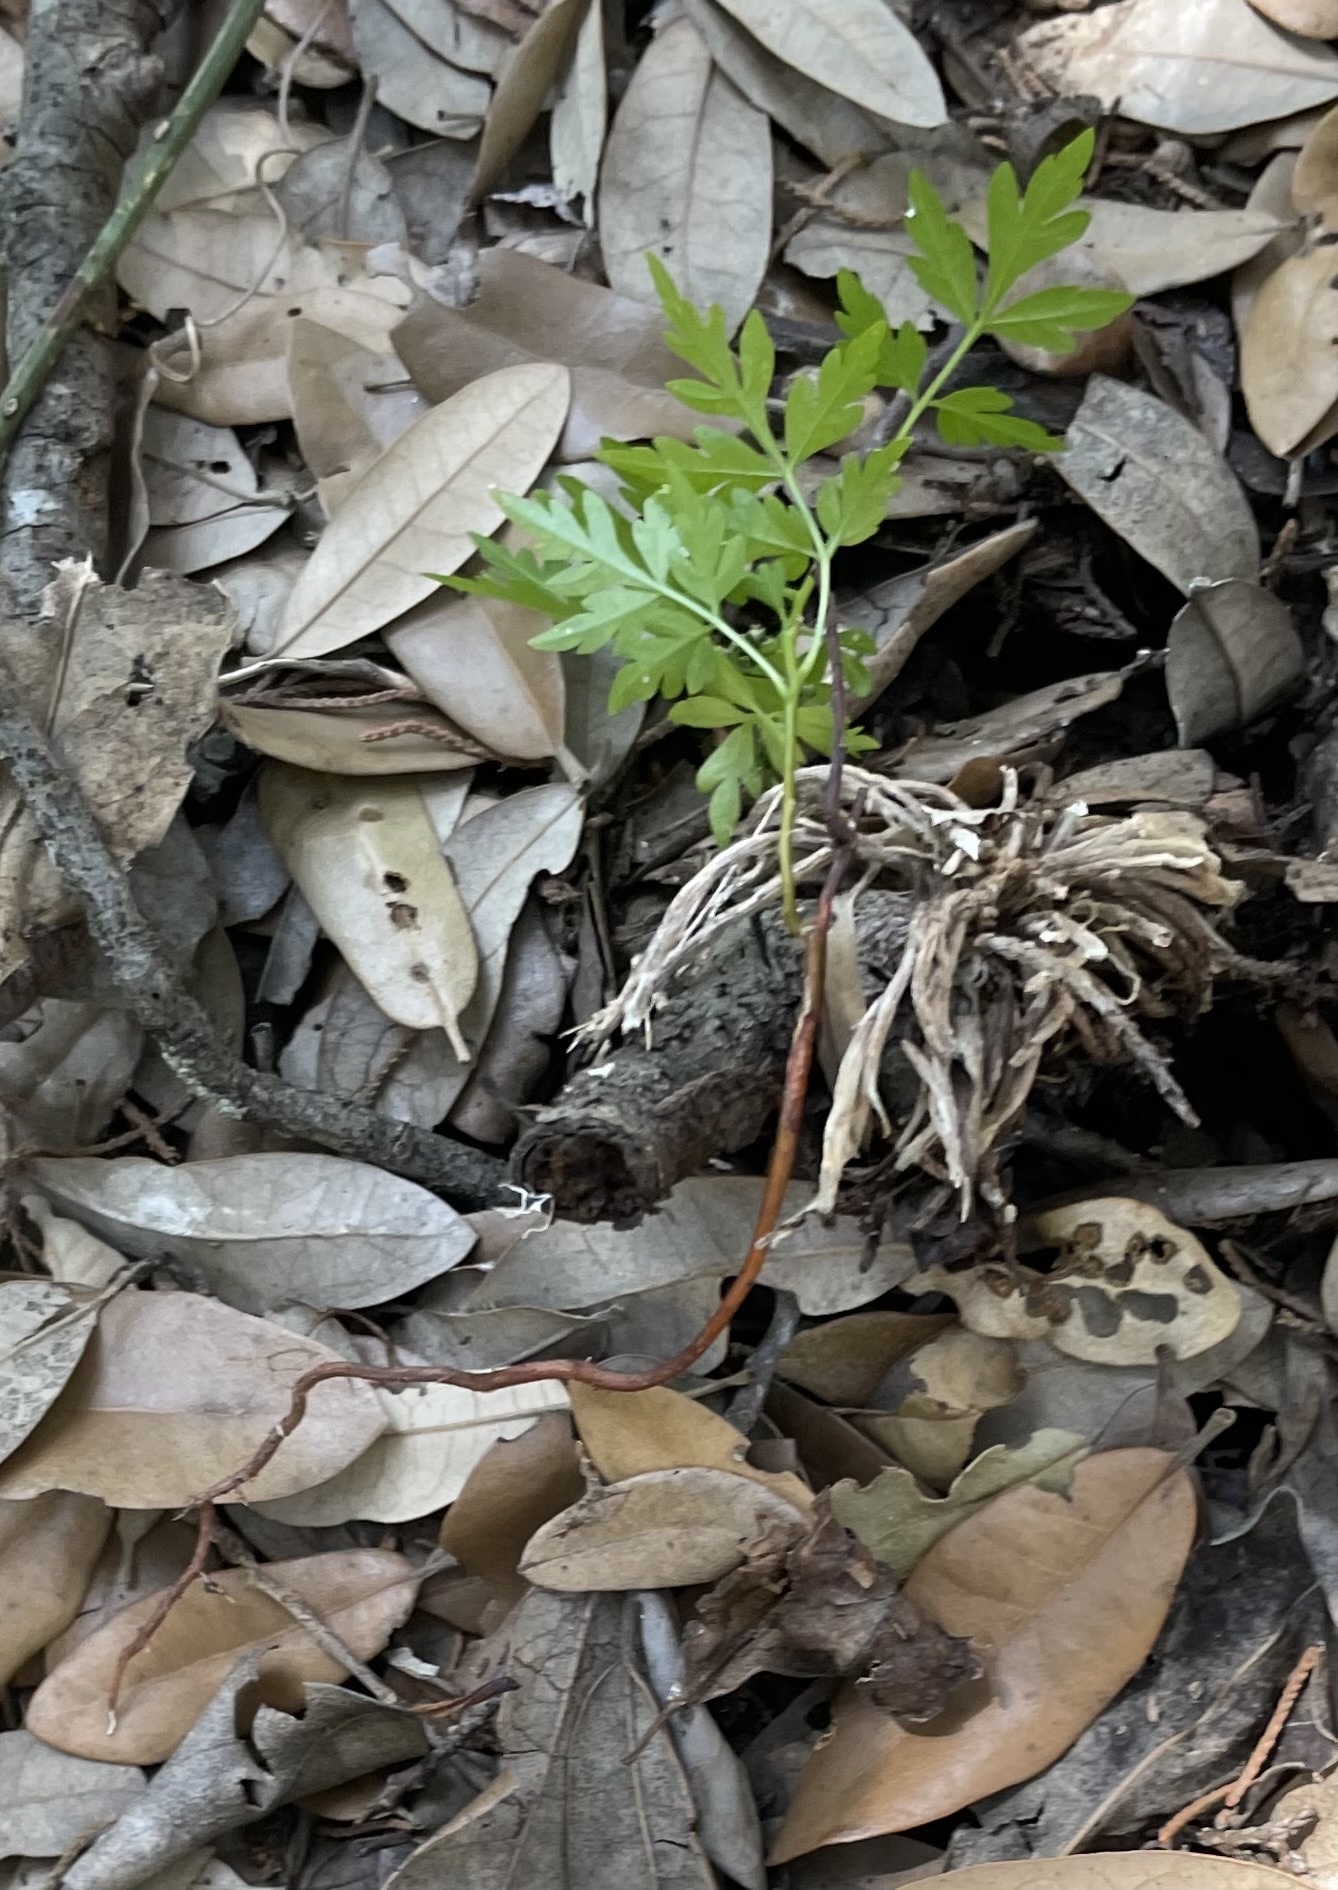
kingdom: Plantae
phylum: Tracheophyta
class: Magnoliopsida
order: Sapindales
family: Meliaceae
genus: Melia
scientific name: Melia azedarach
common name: Chinaberrytree
